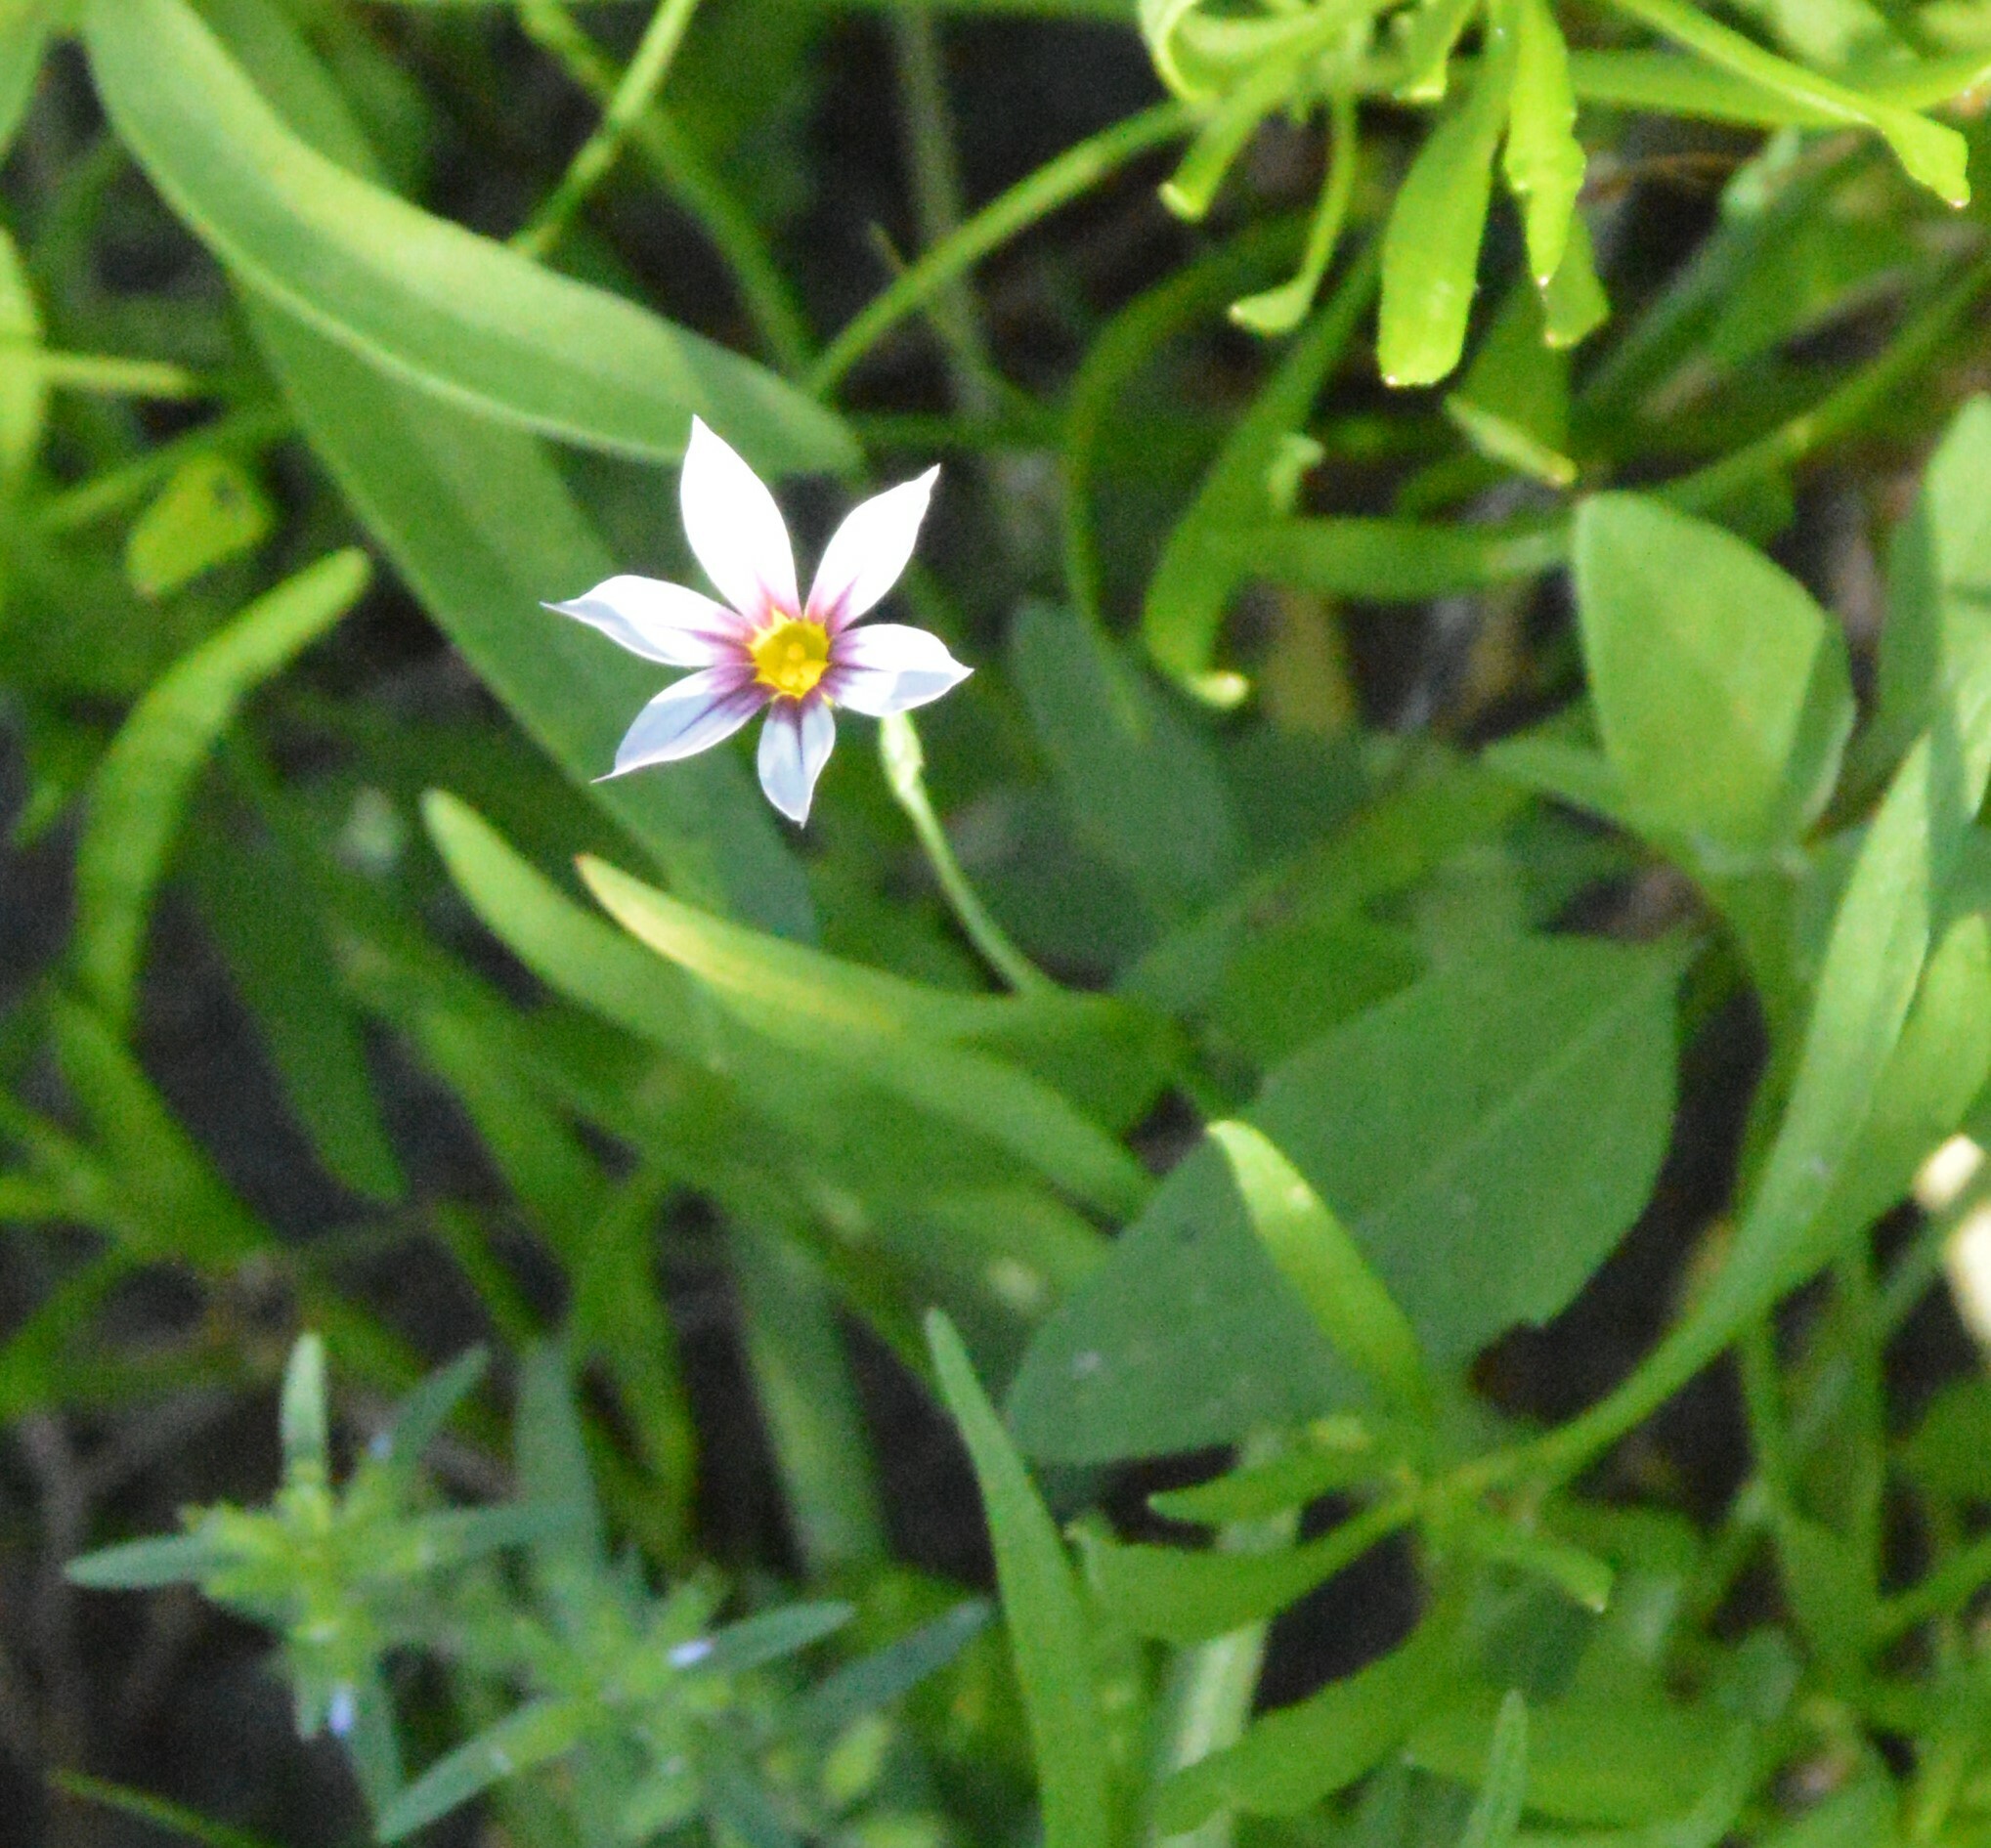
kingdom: Plantae
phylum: Tracheophyta
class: Liliopsida
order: Asparagales
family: Iridaceae
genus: Sisyrinchium
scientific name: Sisyrinchium micranthum
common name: Bermuda pigroot
